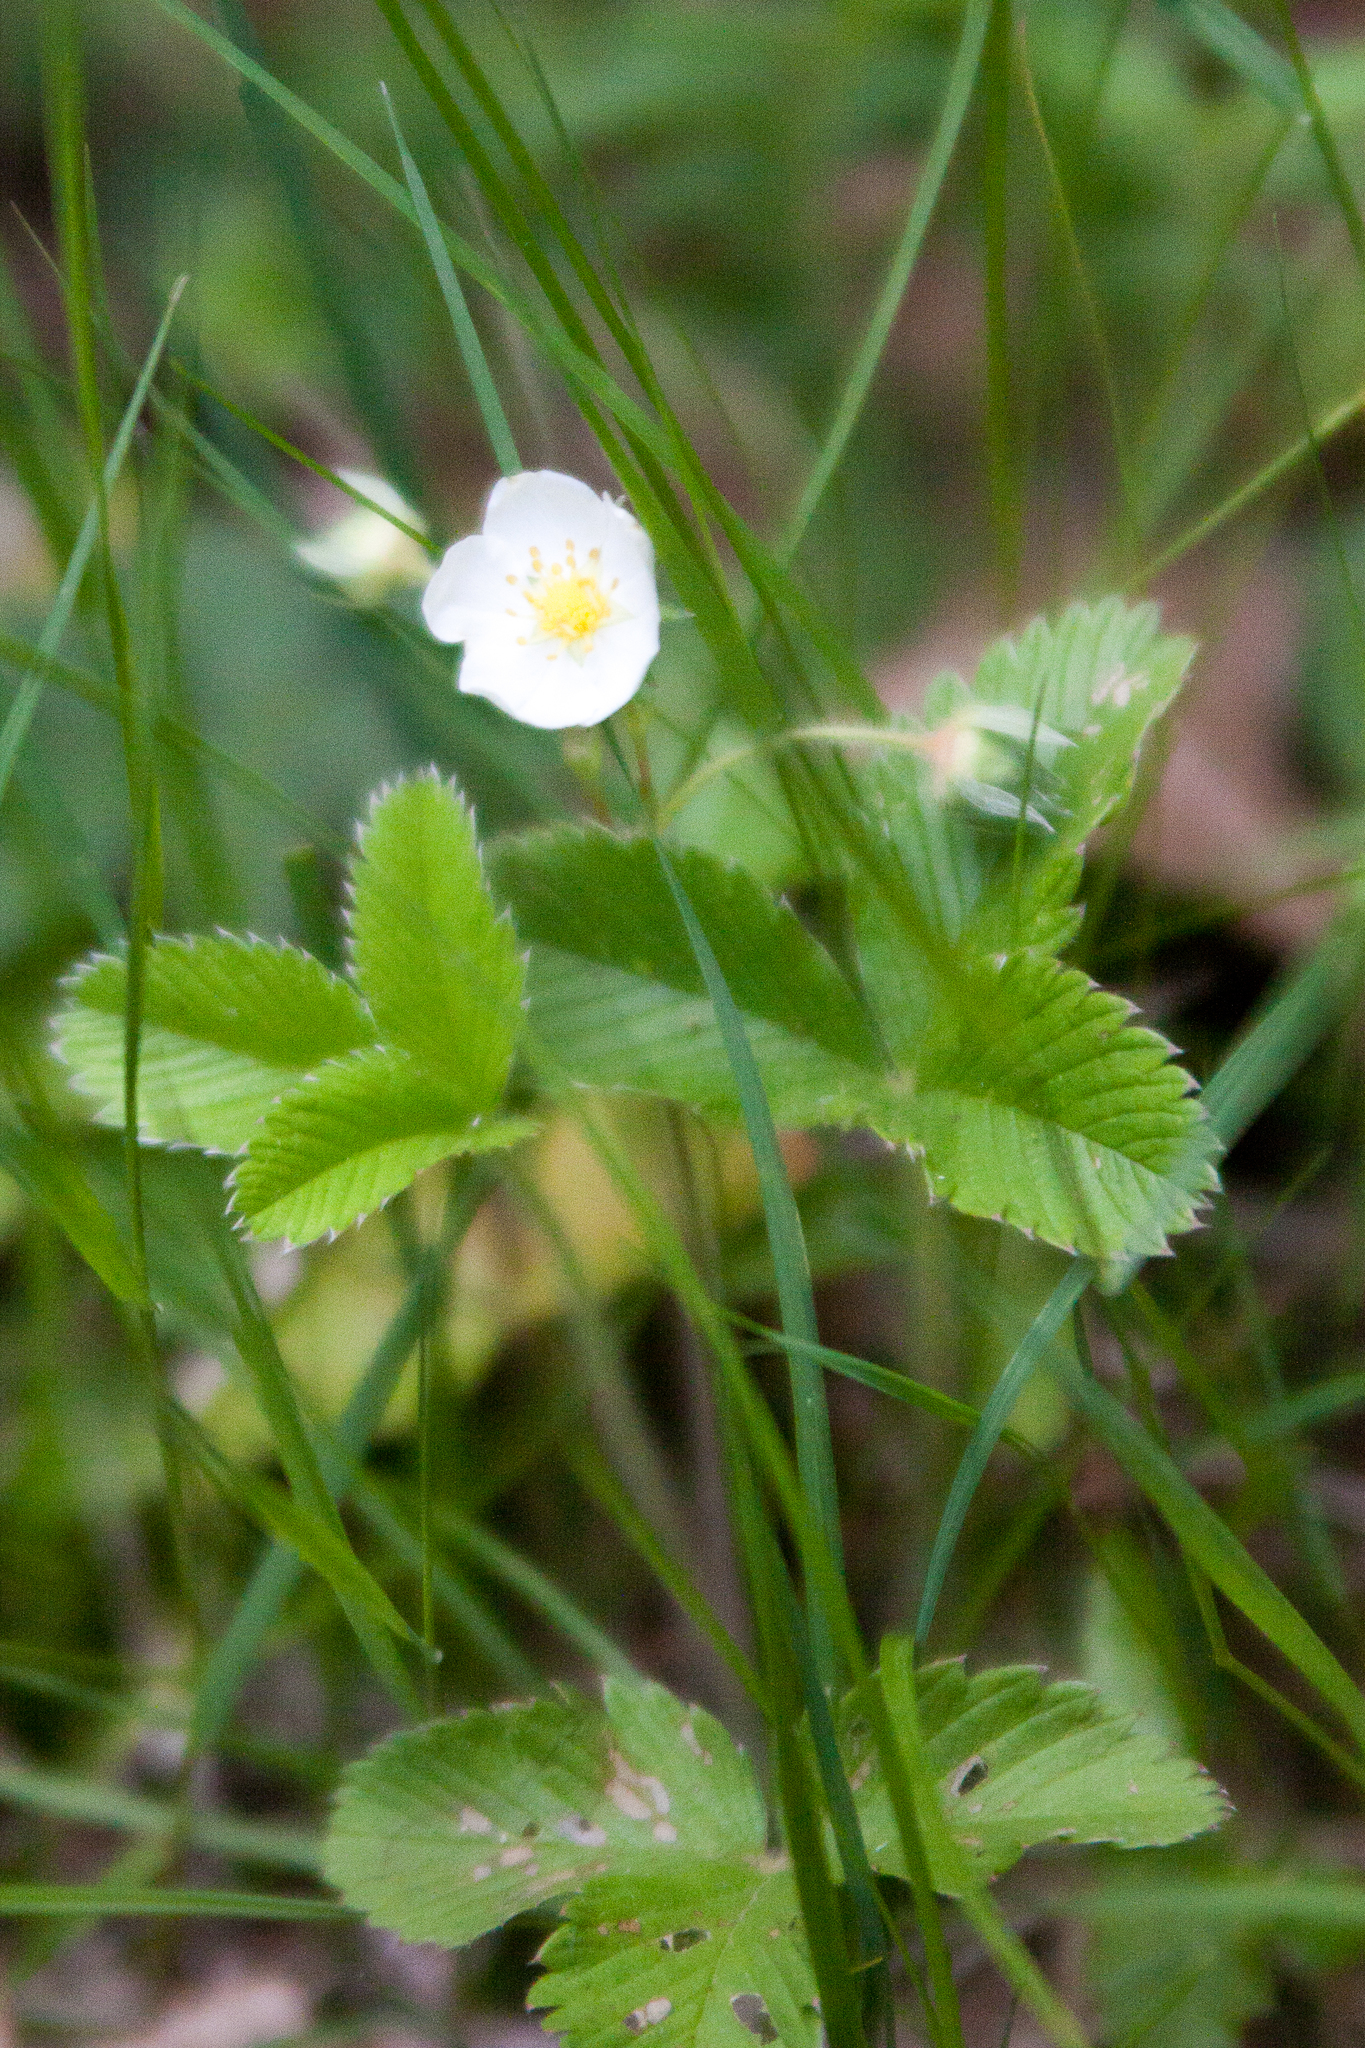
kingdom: Plantae
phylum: Tracheophyta
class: Magnoliopsida
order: Rosales
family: Rosaceae
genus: Fragaria
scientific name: Fragaria viridis
